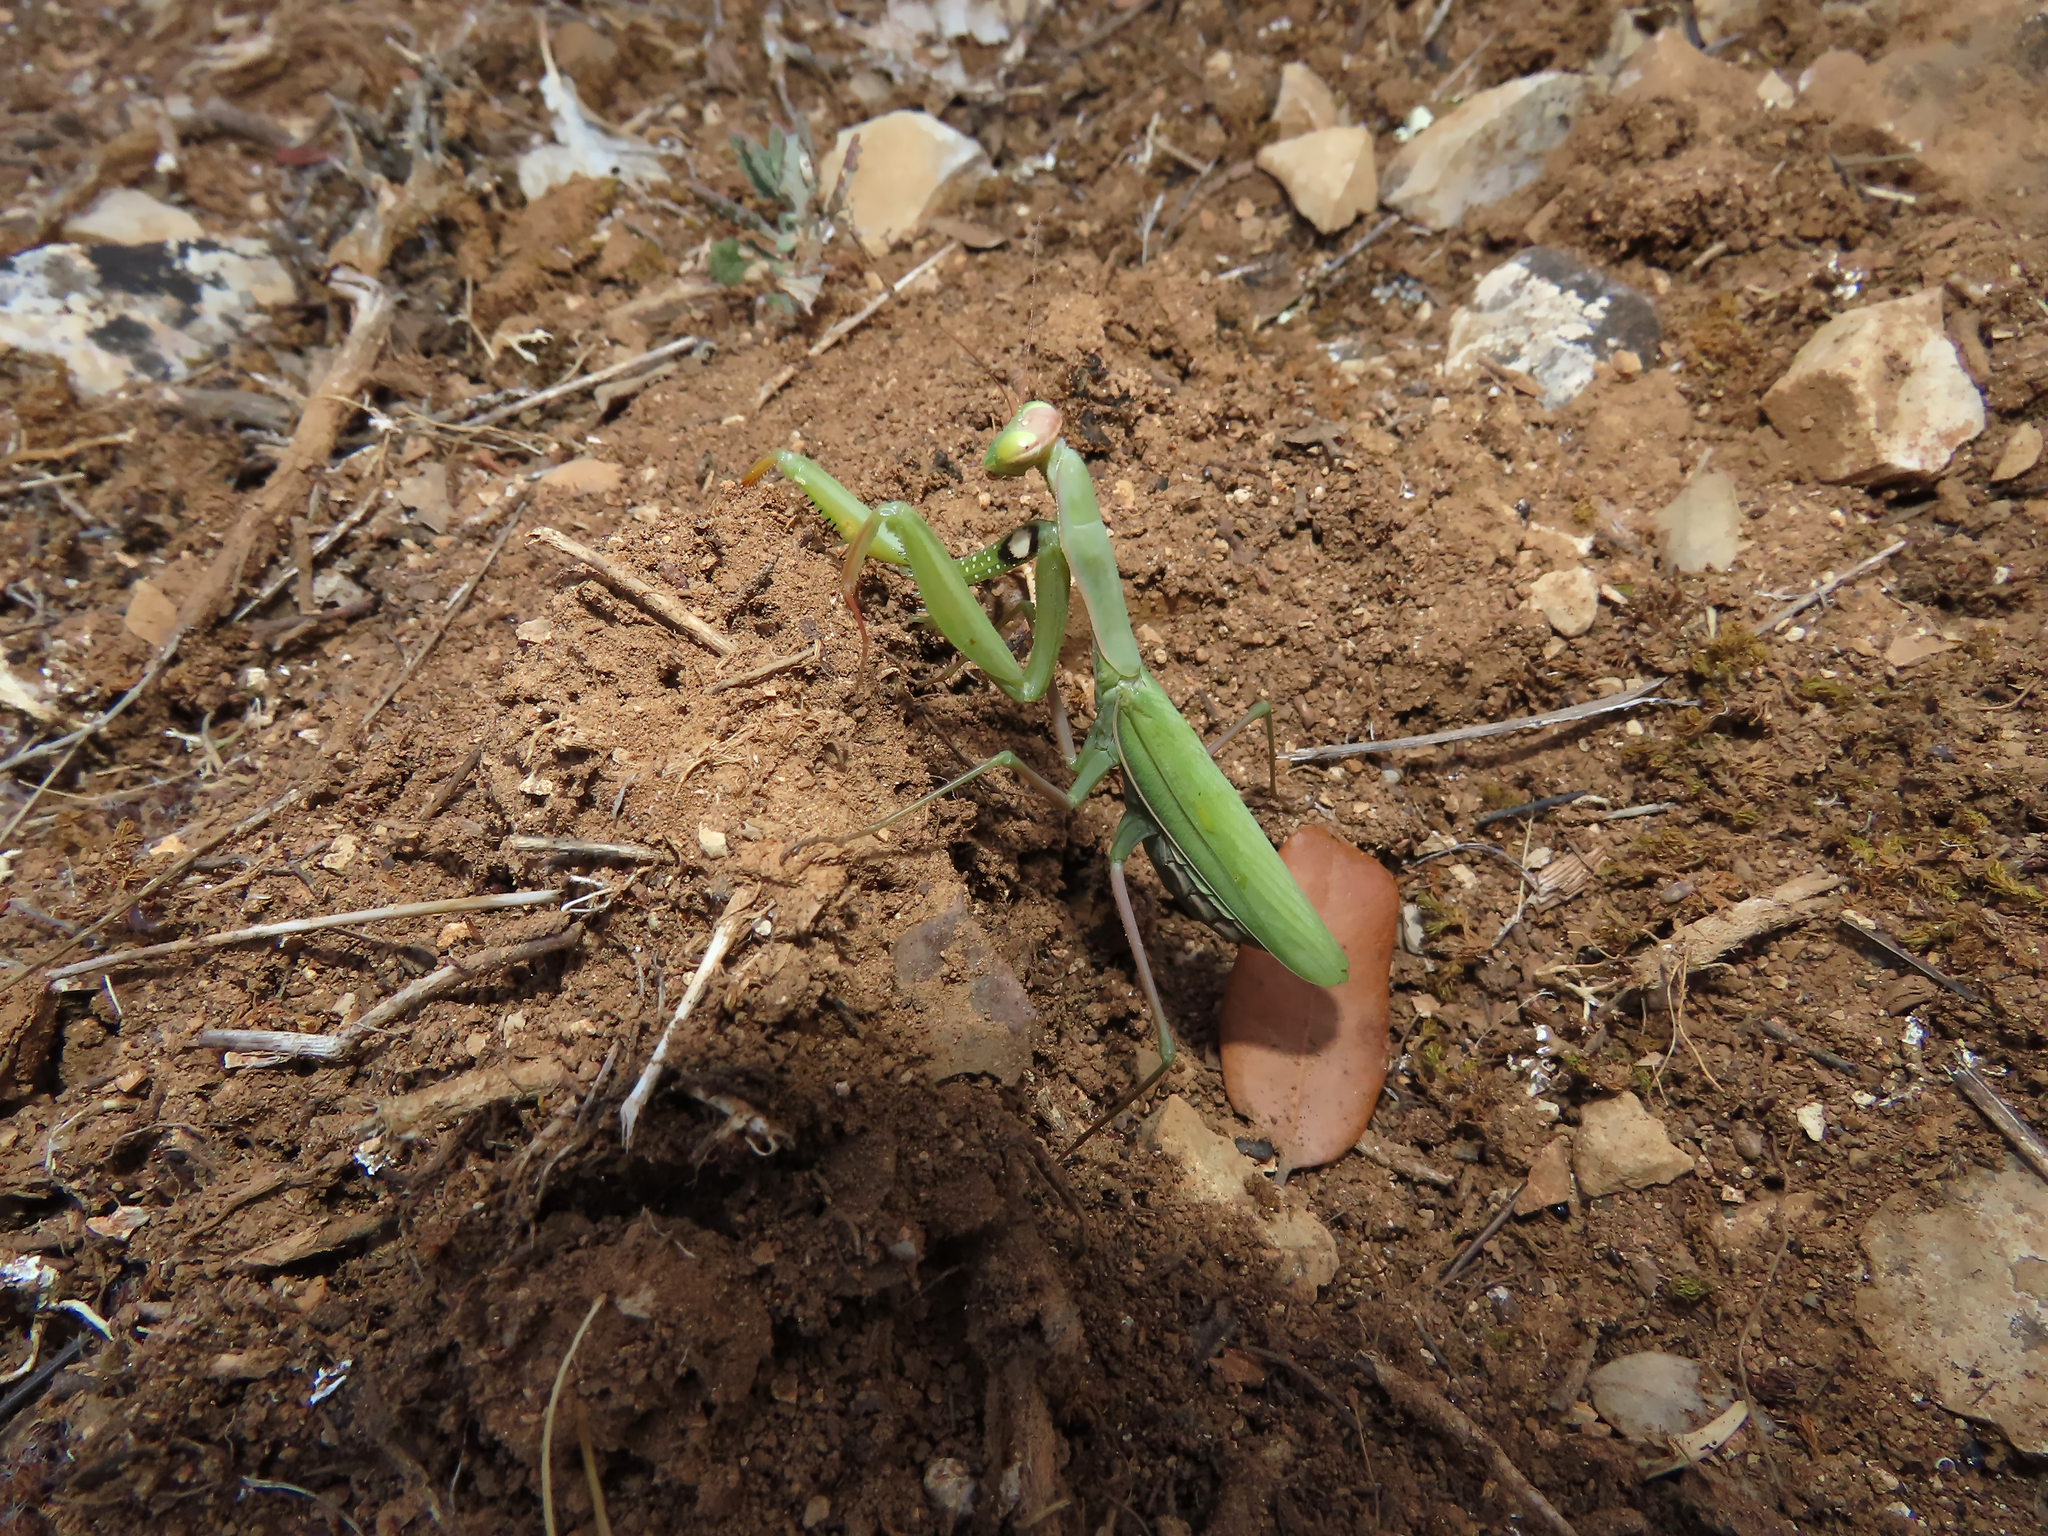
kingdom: Animalia
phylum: Arthropoda
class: Insecta
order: Mantodea
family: Mantidae
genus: Mantis
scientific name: Mantis religiosa
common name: Praying mantis
